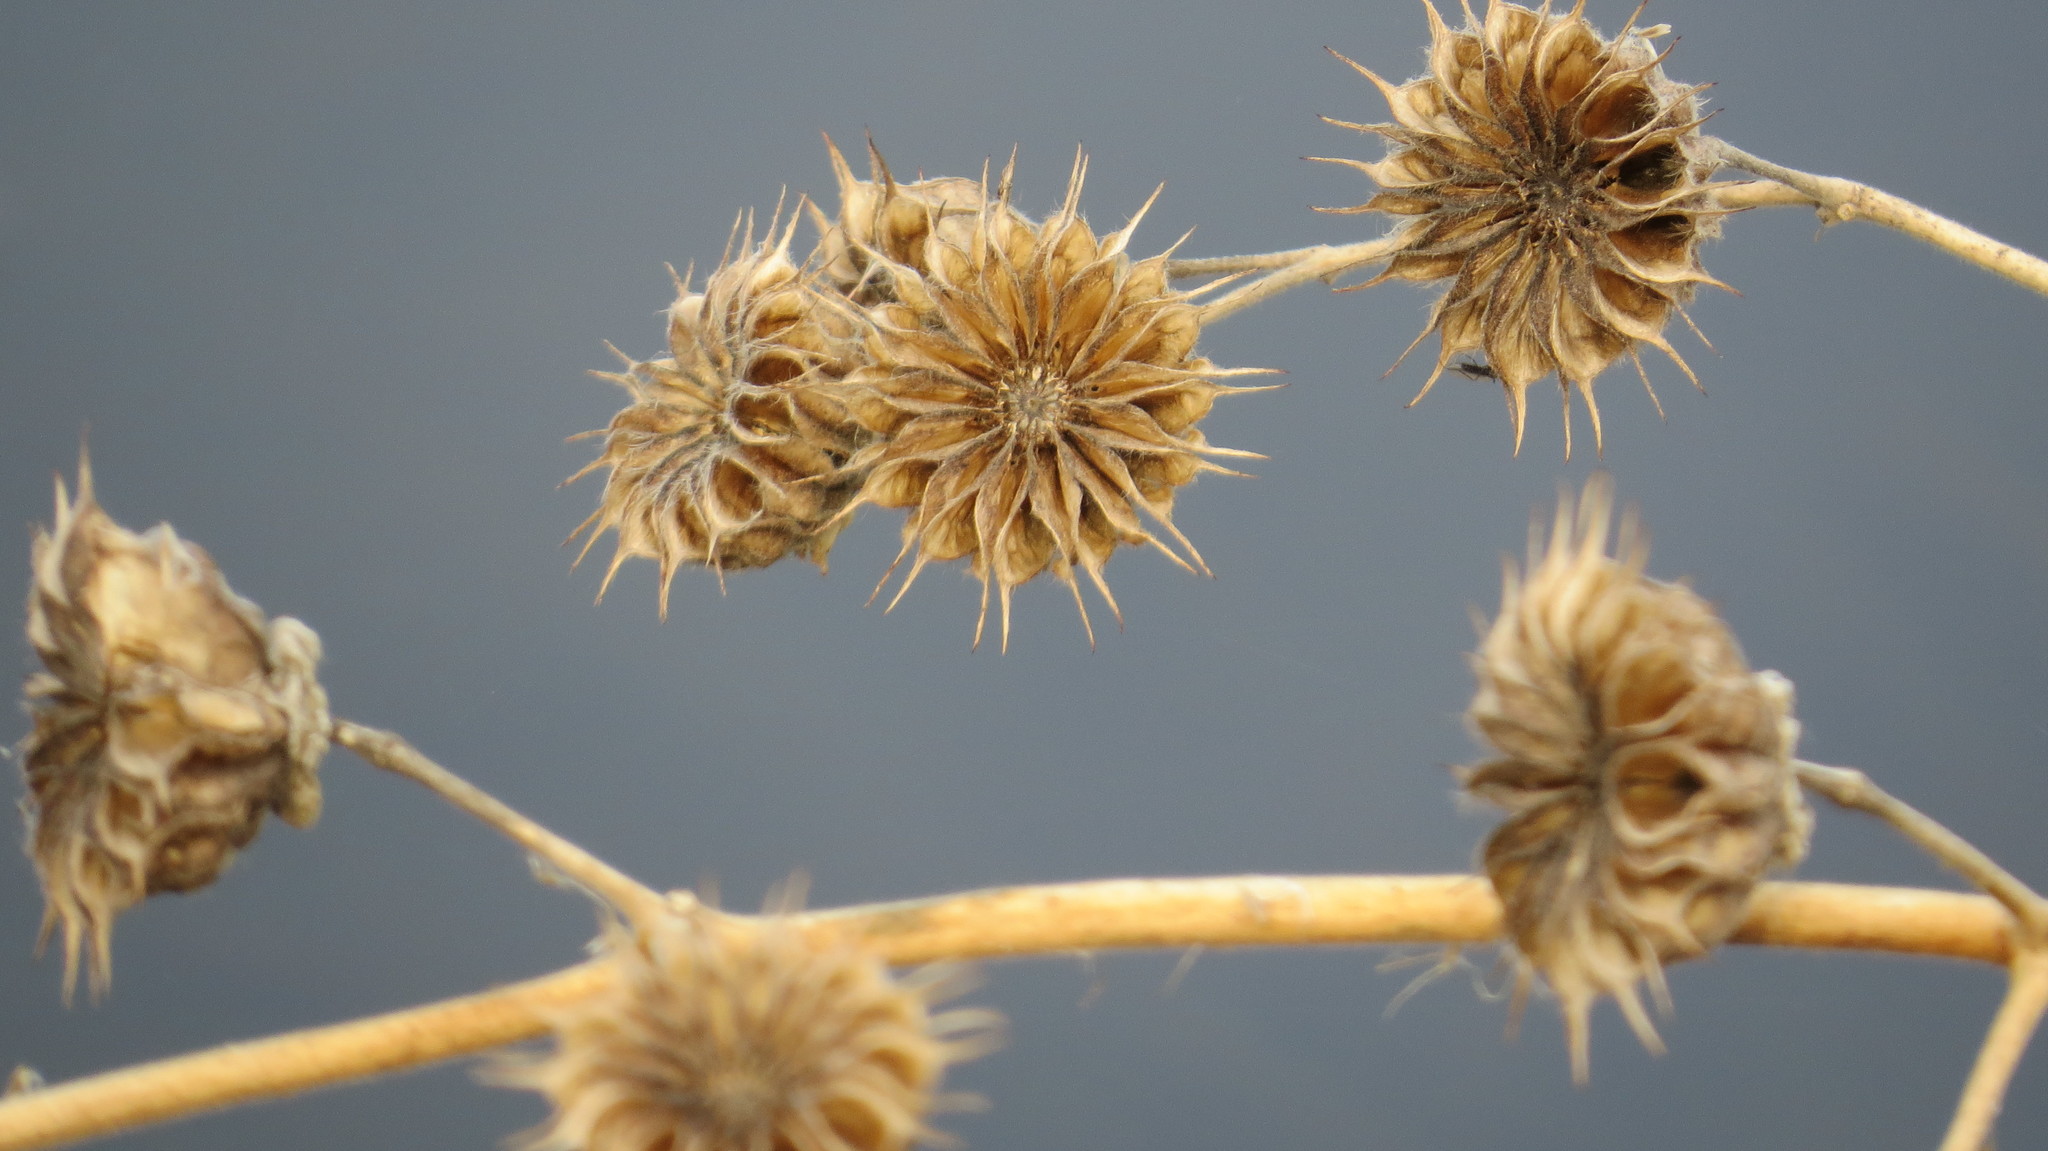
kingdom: Plantae
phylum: Tracheophyta
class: Magnoliopsida
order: Malvales
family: Malvaceae
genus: Abutilon
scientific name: Abutilon theophrasti
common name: Velvetleaf
